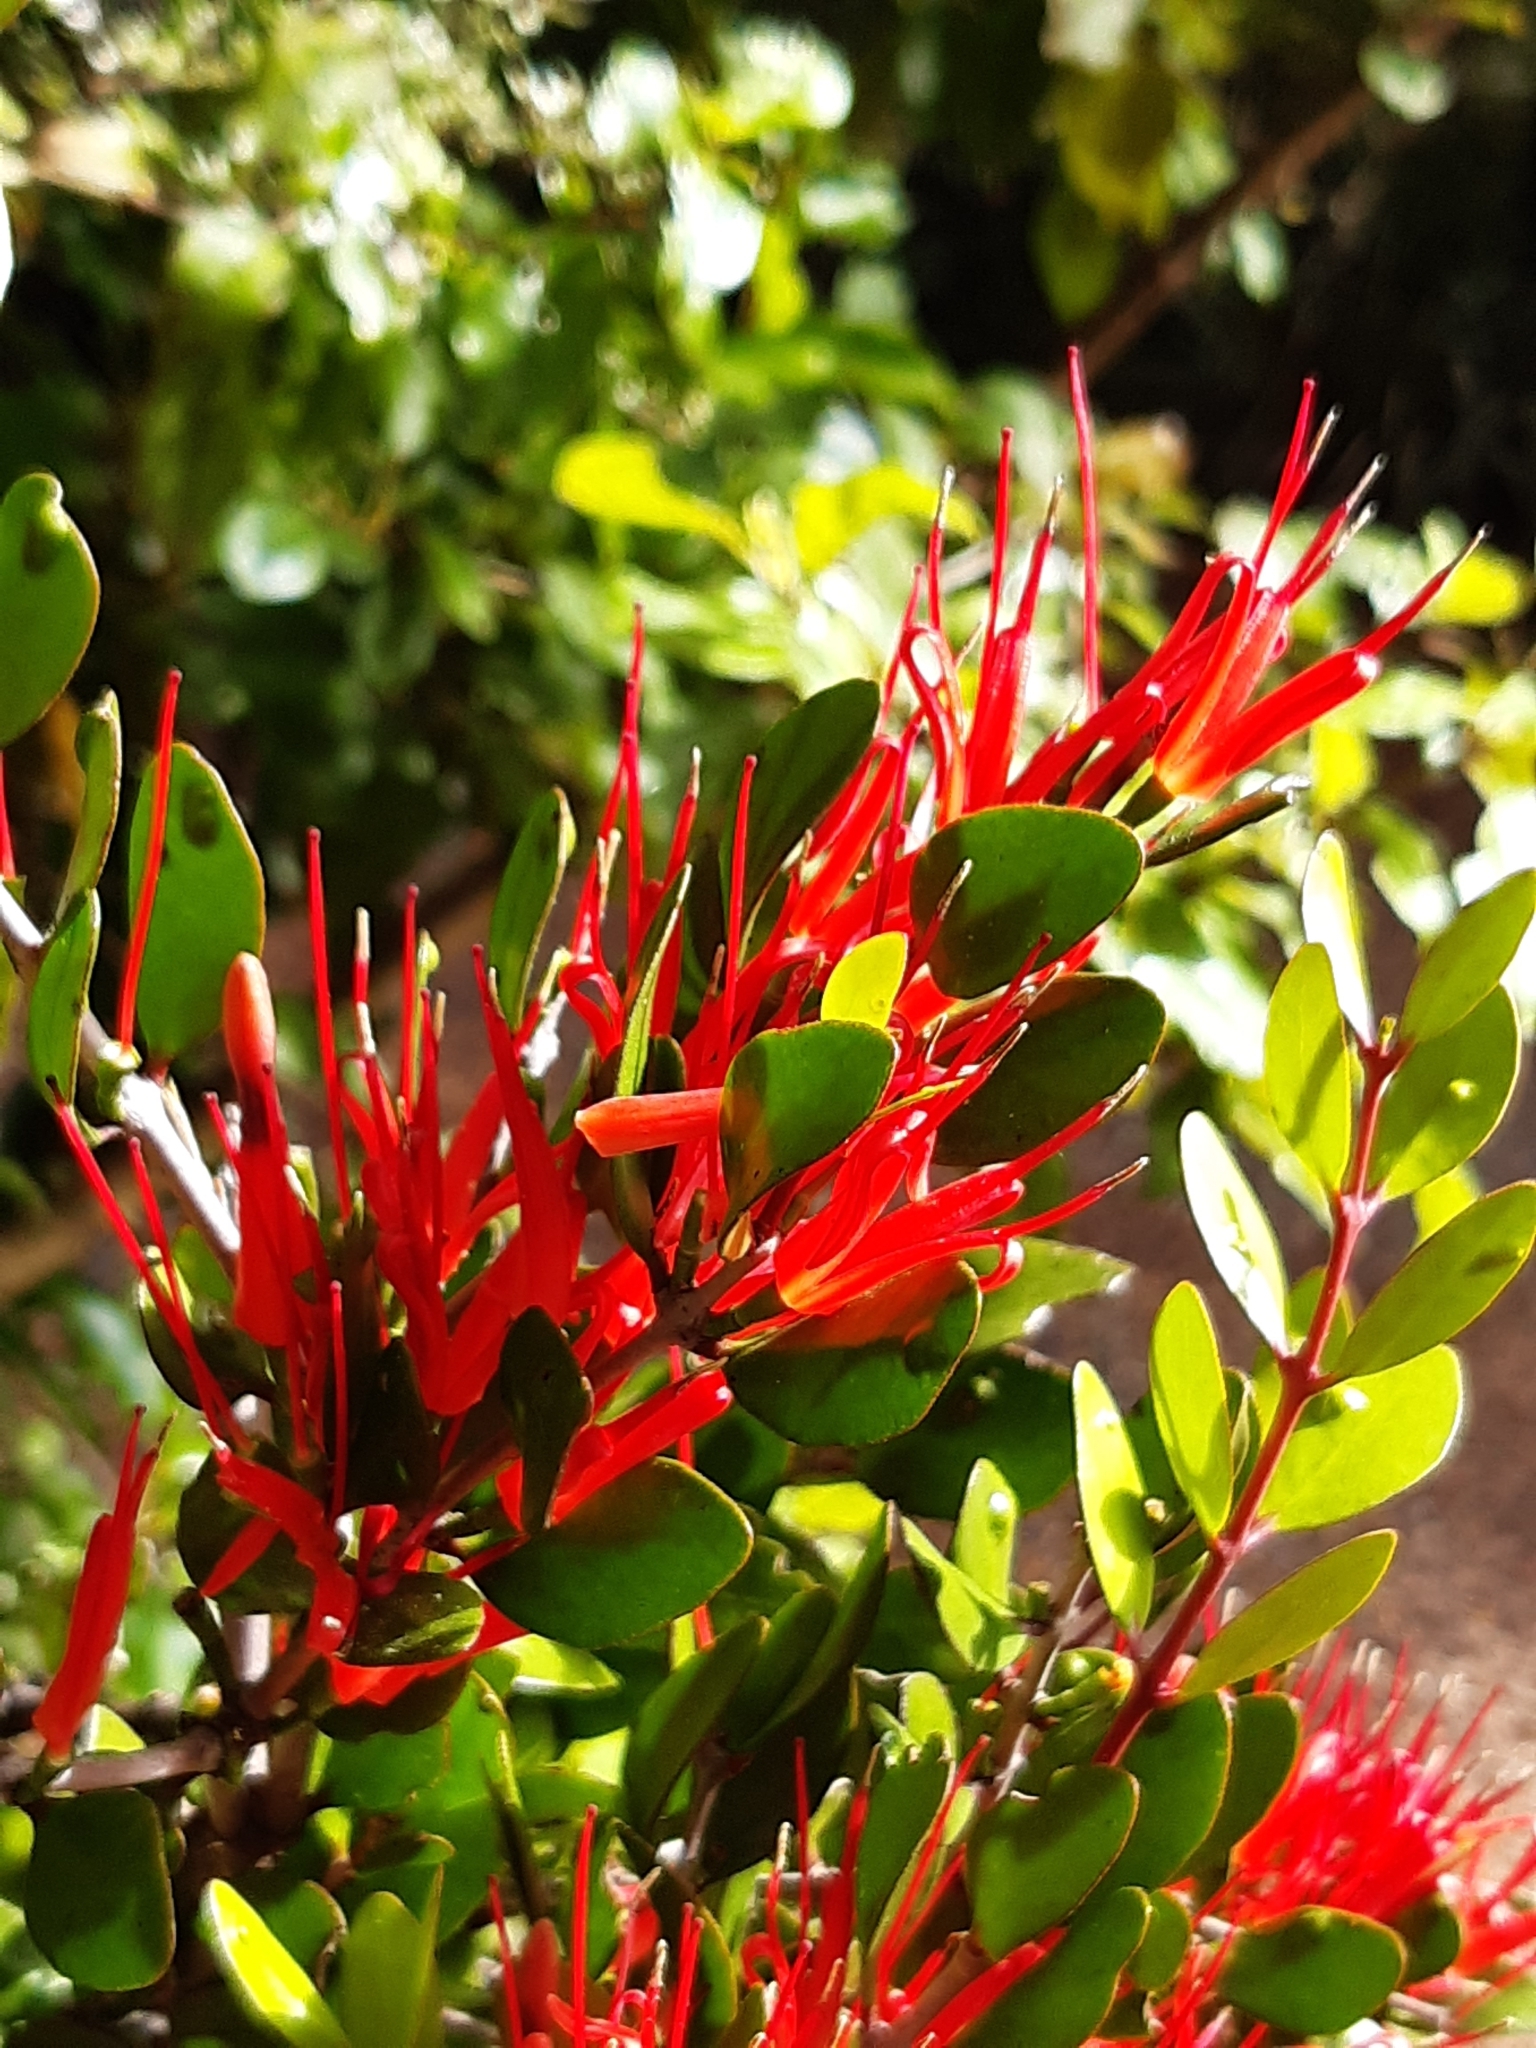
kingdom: Plantae
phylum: Tracheophyta
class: Magnoliopsida
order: Santalales
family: Loranthaceae
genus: Peraxilla
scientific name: Peraxilla tetrapetala
